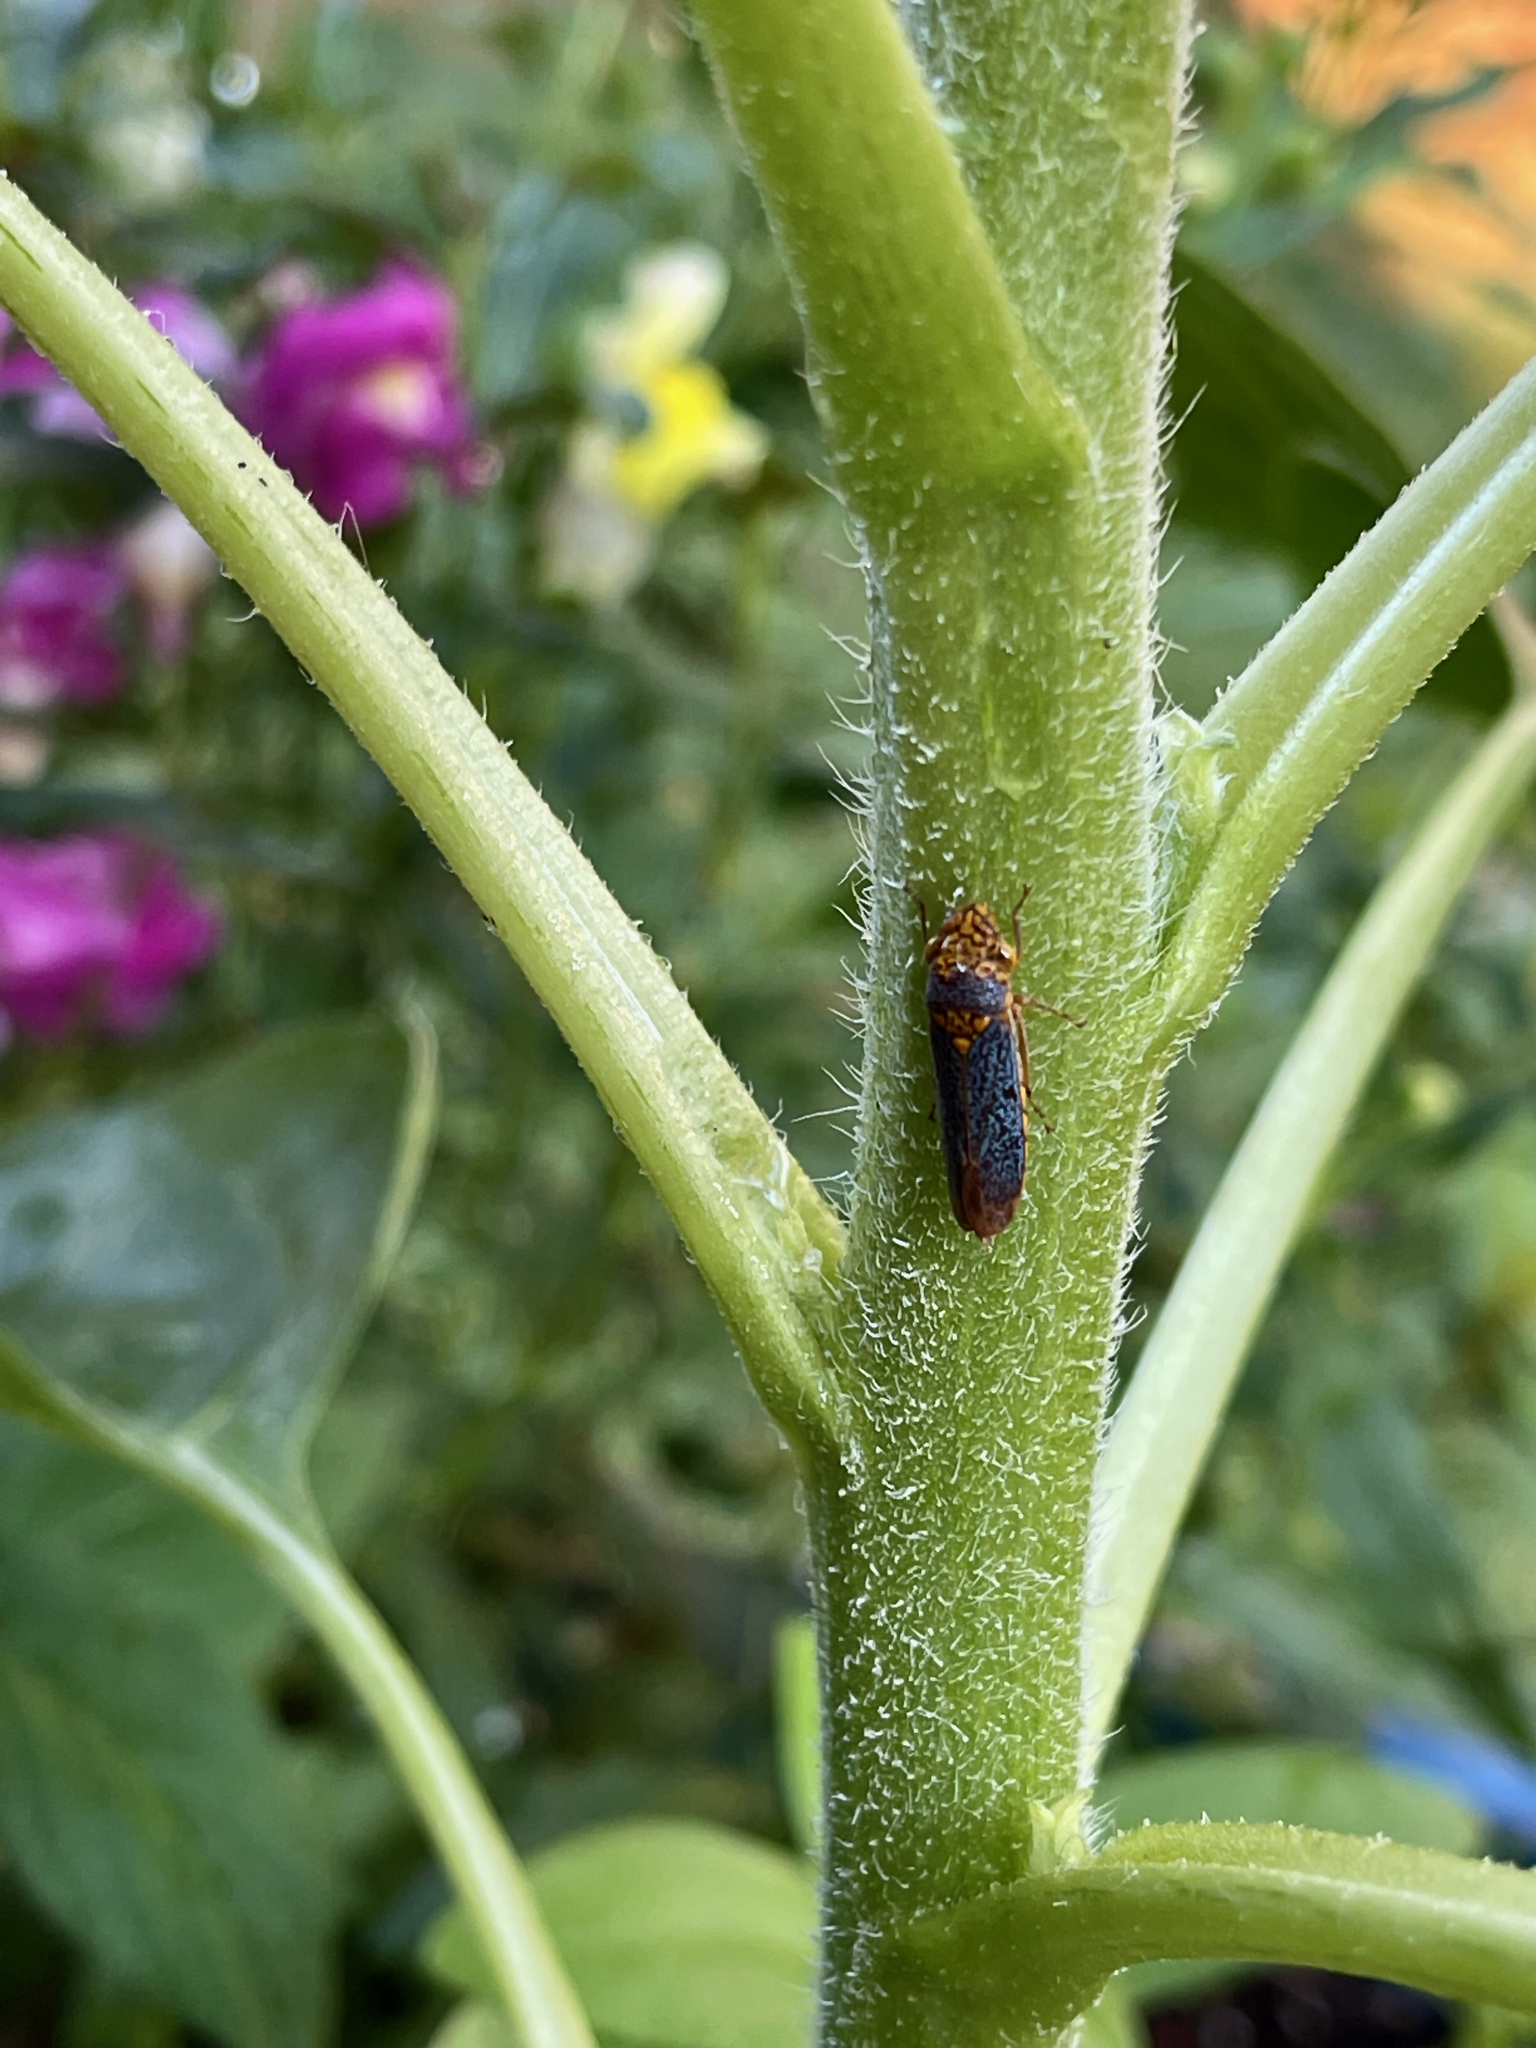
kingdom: Animalia
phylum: Arthropoda
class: Insecta
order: Hemiptera
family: Cicadellidae
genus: Oncometopia
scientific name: Oncometopia orbona
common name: Broad-headed sharpshooter
